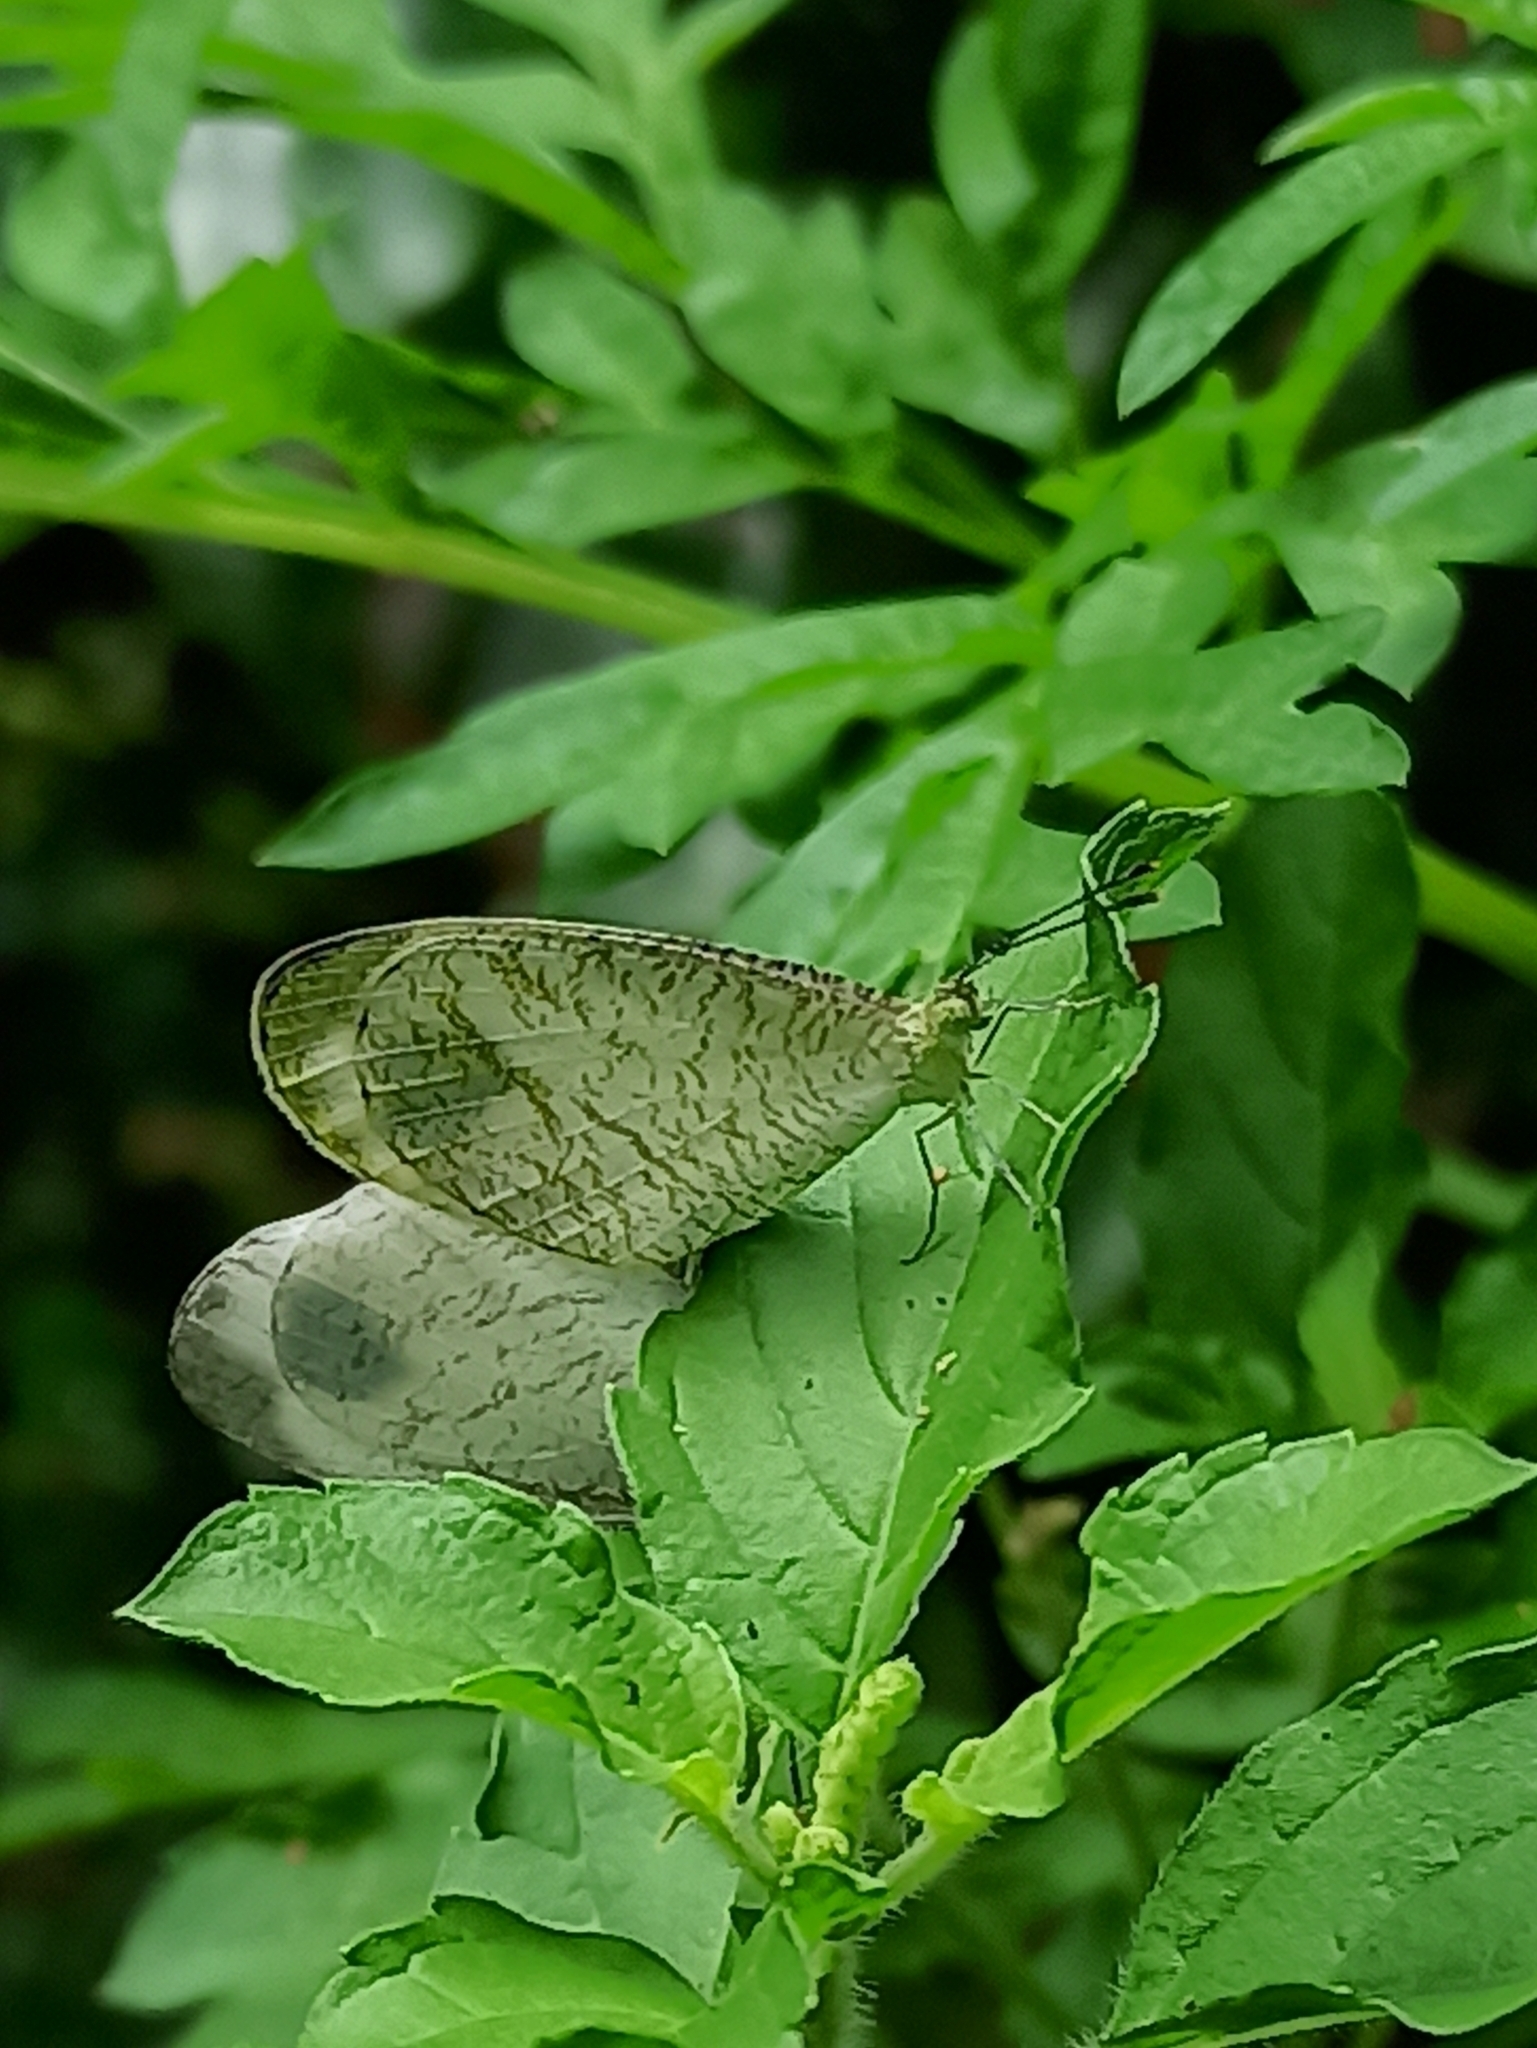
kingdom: Animalia
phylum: Arthropoda
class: Insecta
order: Lepidoptera
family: Pieridae
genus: Leptosia
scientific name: Leptosia nina
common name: Psyche
